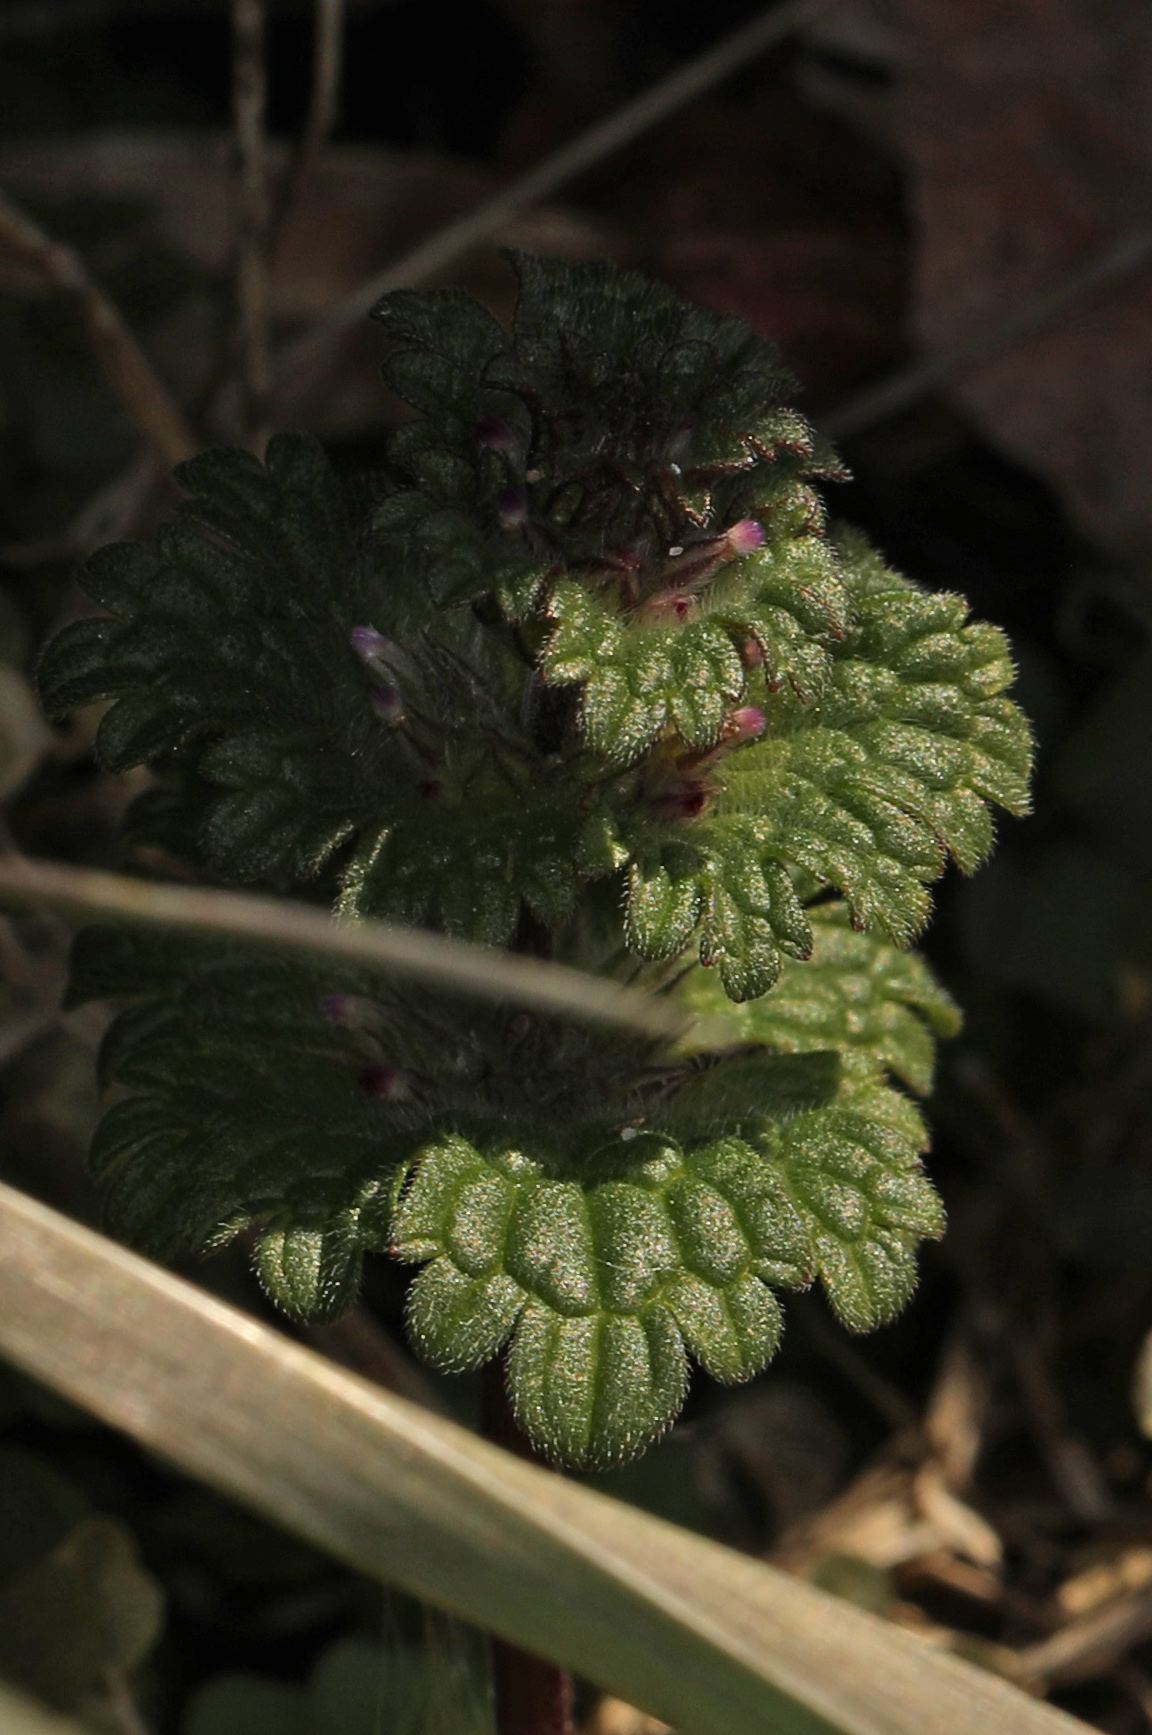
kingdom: Plantae
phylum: Tracheophyta
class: Magnoliopsida
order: Lamiales
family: Lamiaceae
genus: Lamium
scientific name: Lamium amplexicaule
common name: Henbit dead-nettle
